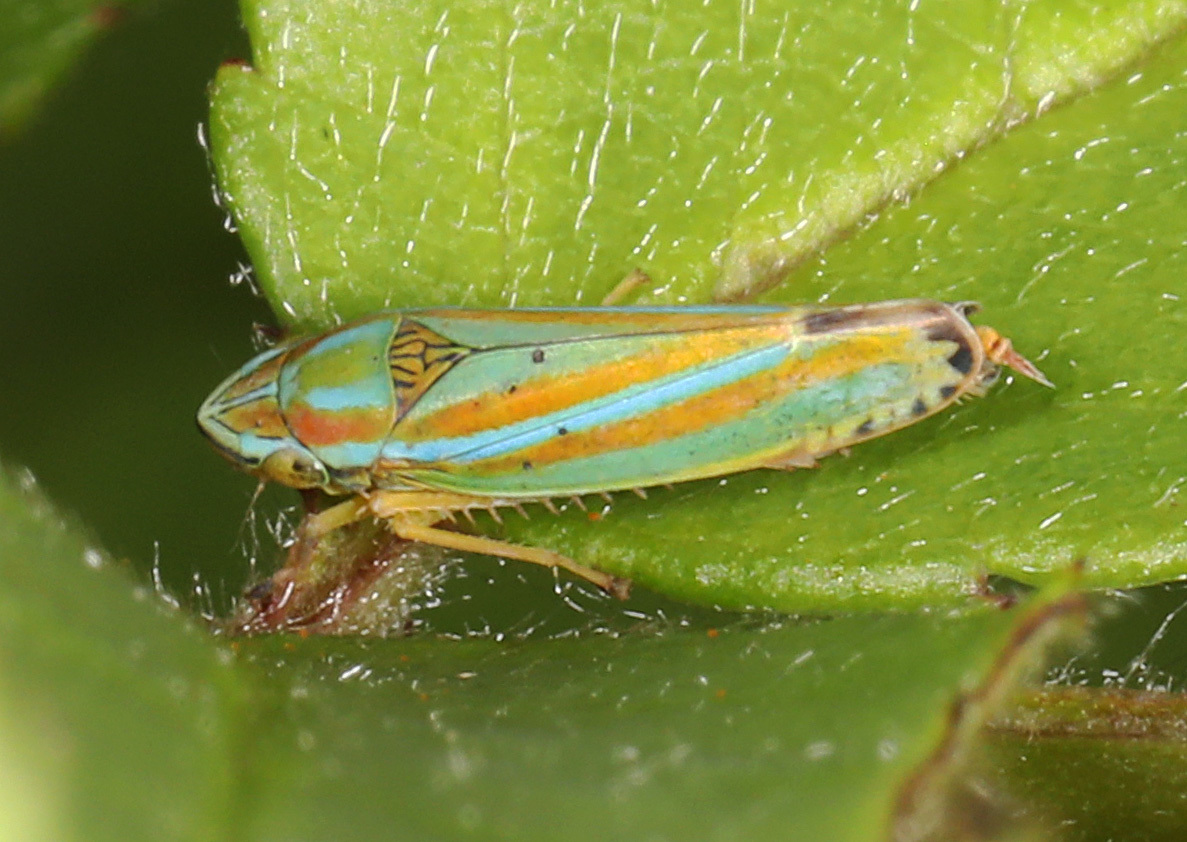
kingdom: Animalia
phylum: Arthropoda
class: Insecta
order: Hemiptera
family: Cicadellidae
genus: Graphocephala
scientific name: Graphocephala versuta
